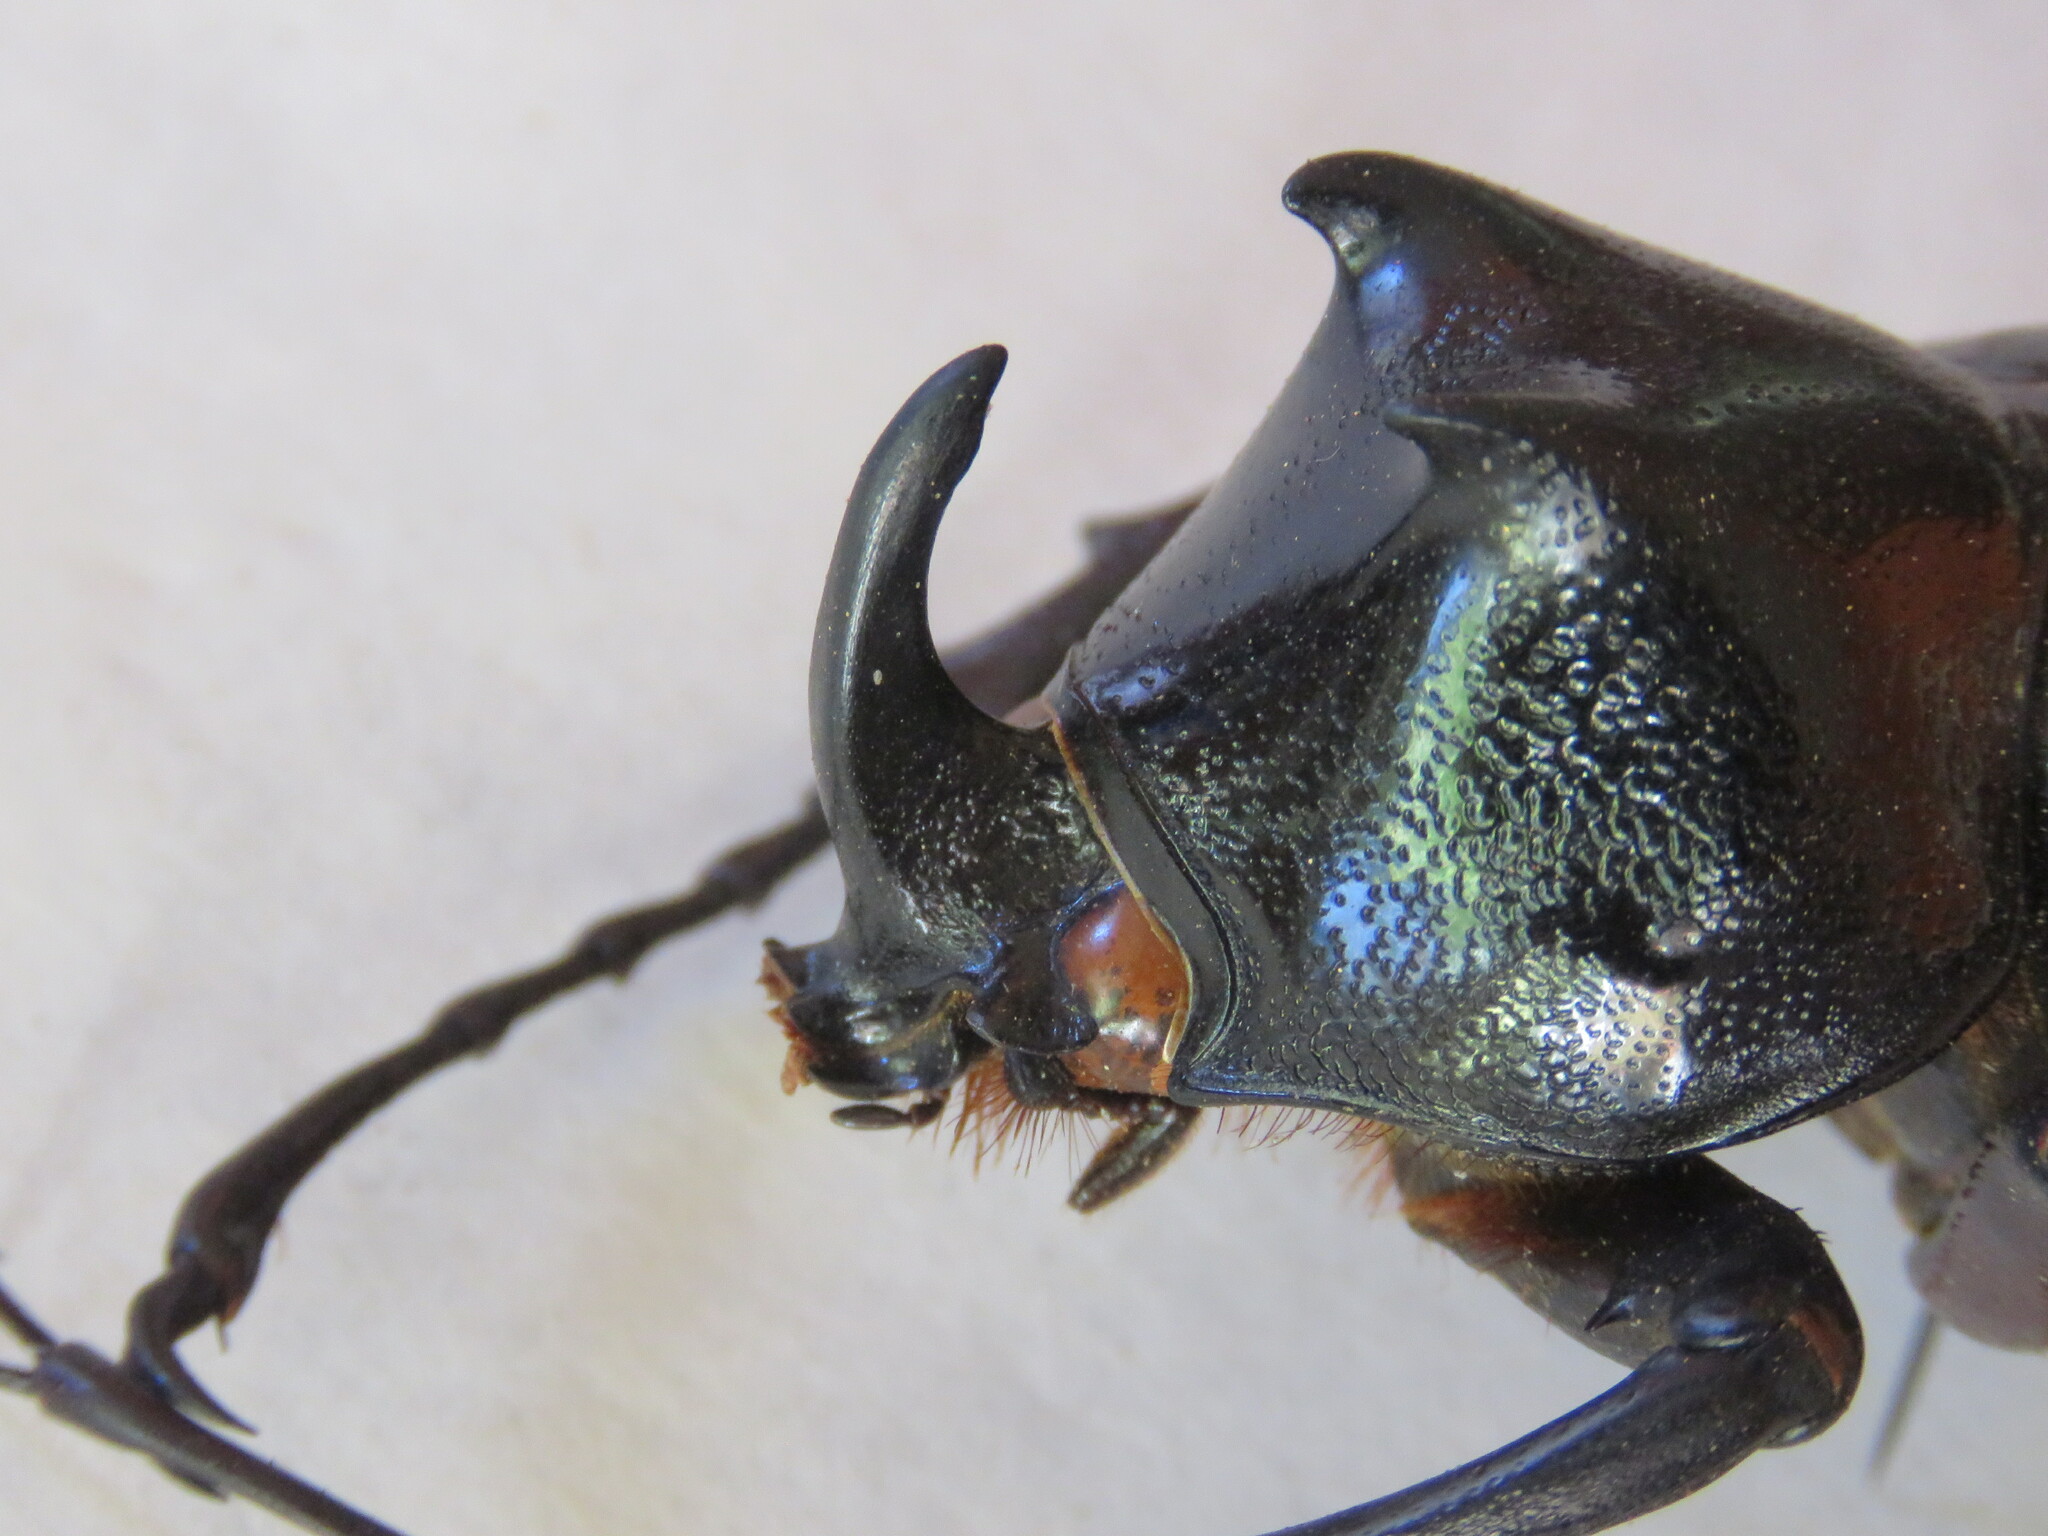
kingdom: Animalia
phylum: Arthropoda
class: Insecta
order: Coleoptera
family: Scarabaeidae
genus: Chalcosoma
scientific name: Chalcosoma chiron
